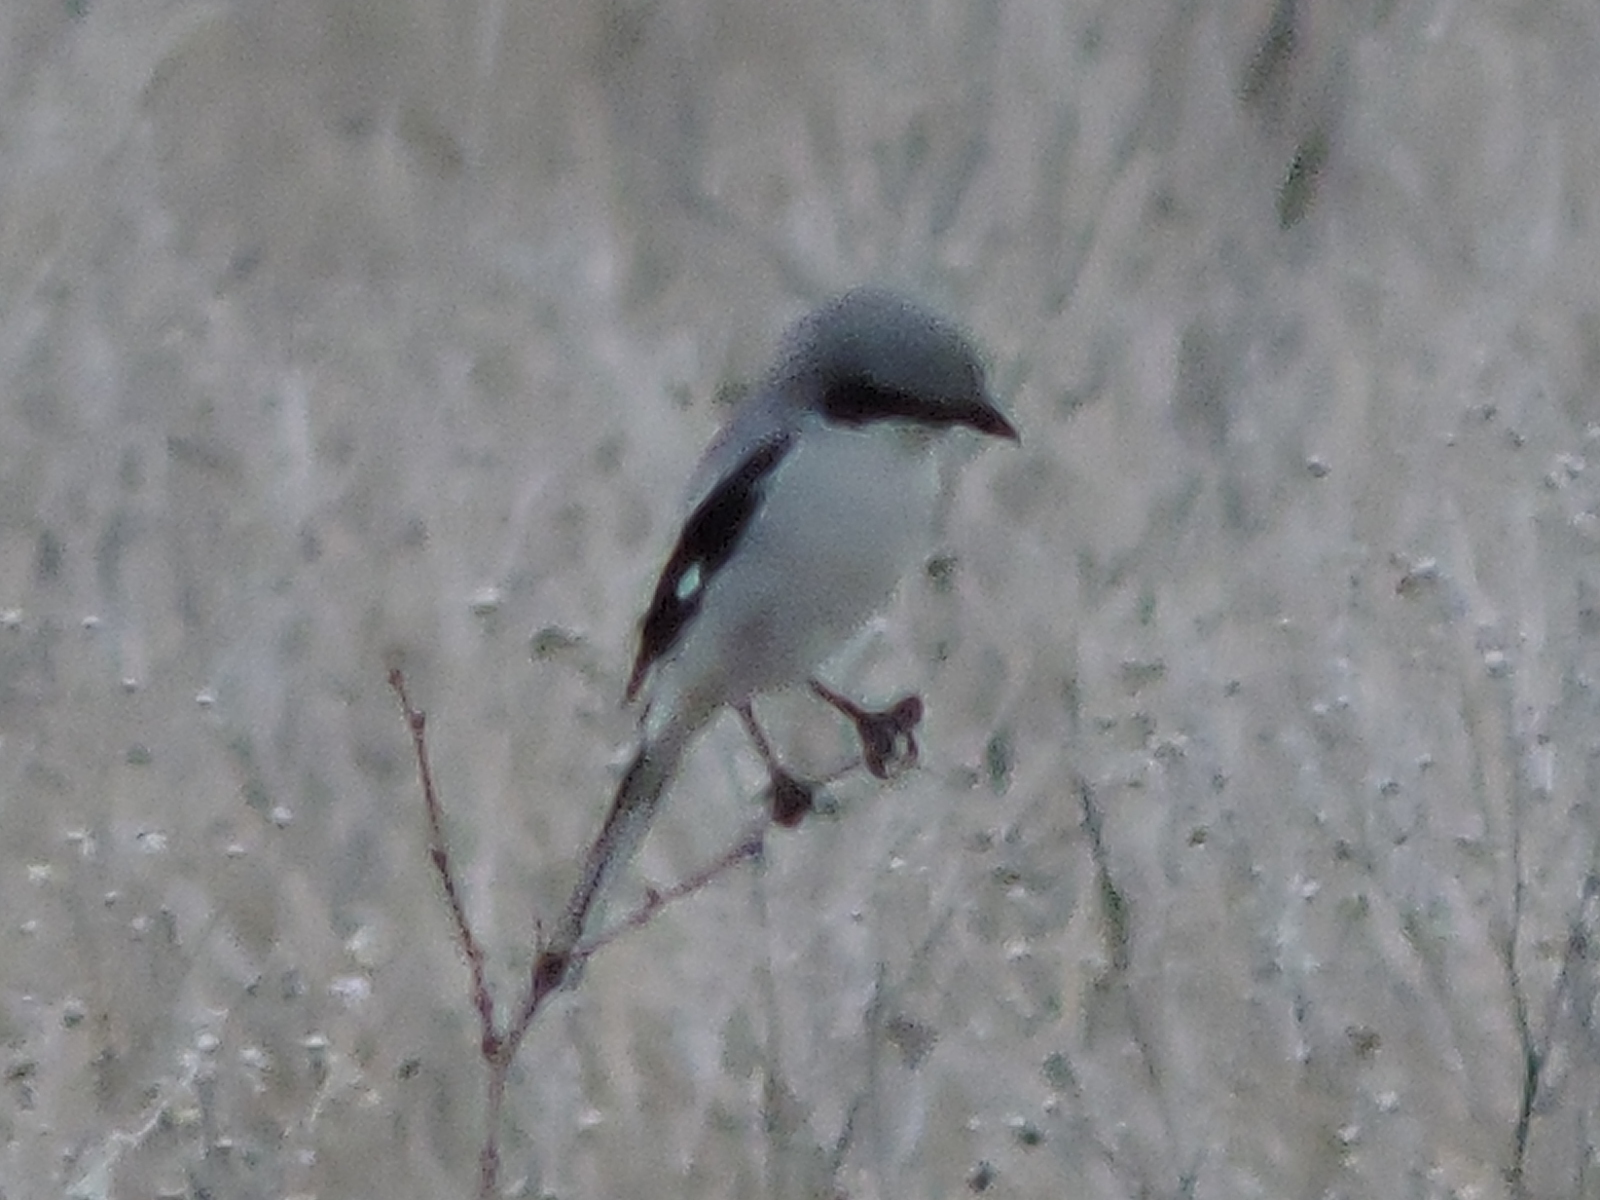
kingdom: Animalia
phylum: Chordata
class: Aves
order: Passeriformes
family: Laniidae
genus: Lanius
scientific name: Lanius ludovicianus
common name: Loggerhead shrike
